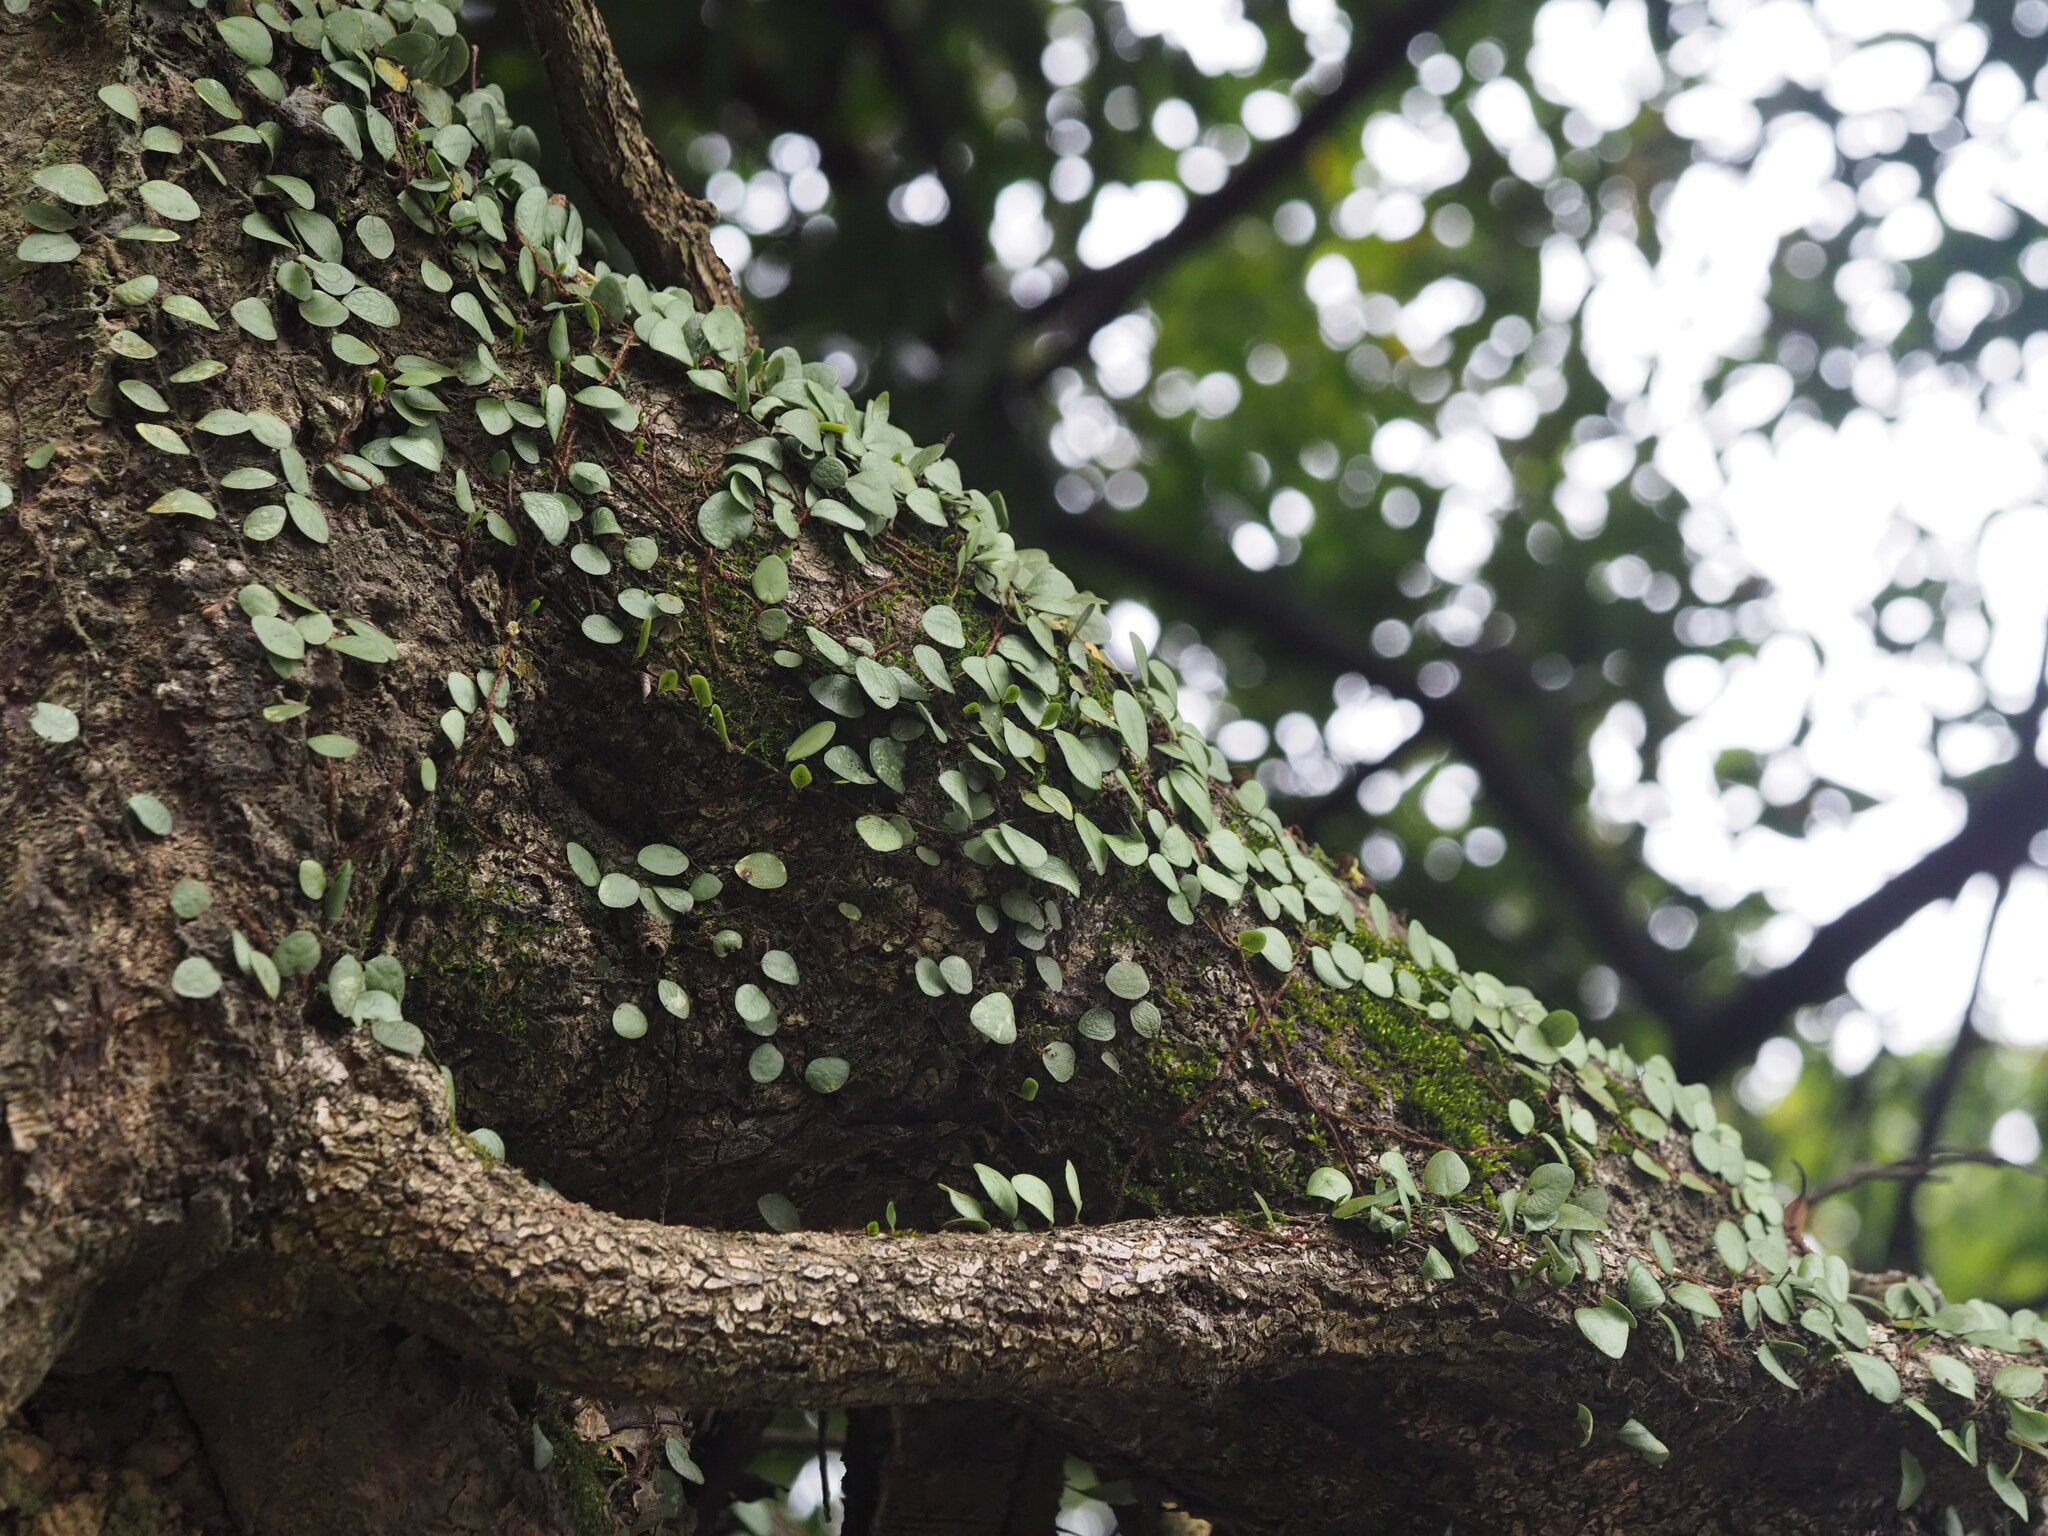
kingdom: Plantae
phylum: Tracheophyta
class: Polypodiopsida
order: Polypodiales
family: Polypodiaceae
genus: Lepisorus
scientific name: Lepisorus microphyllus
